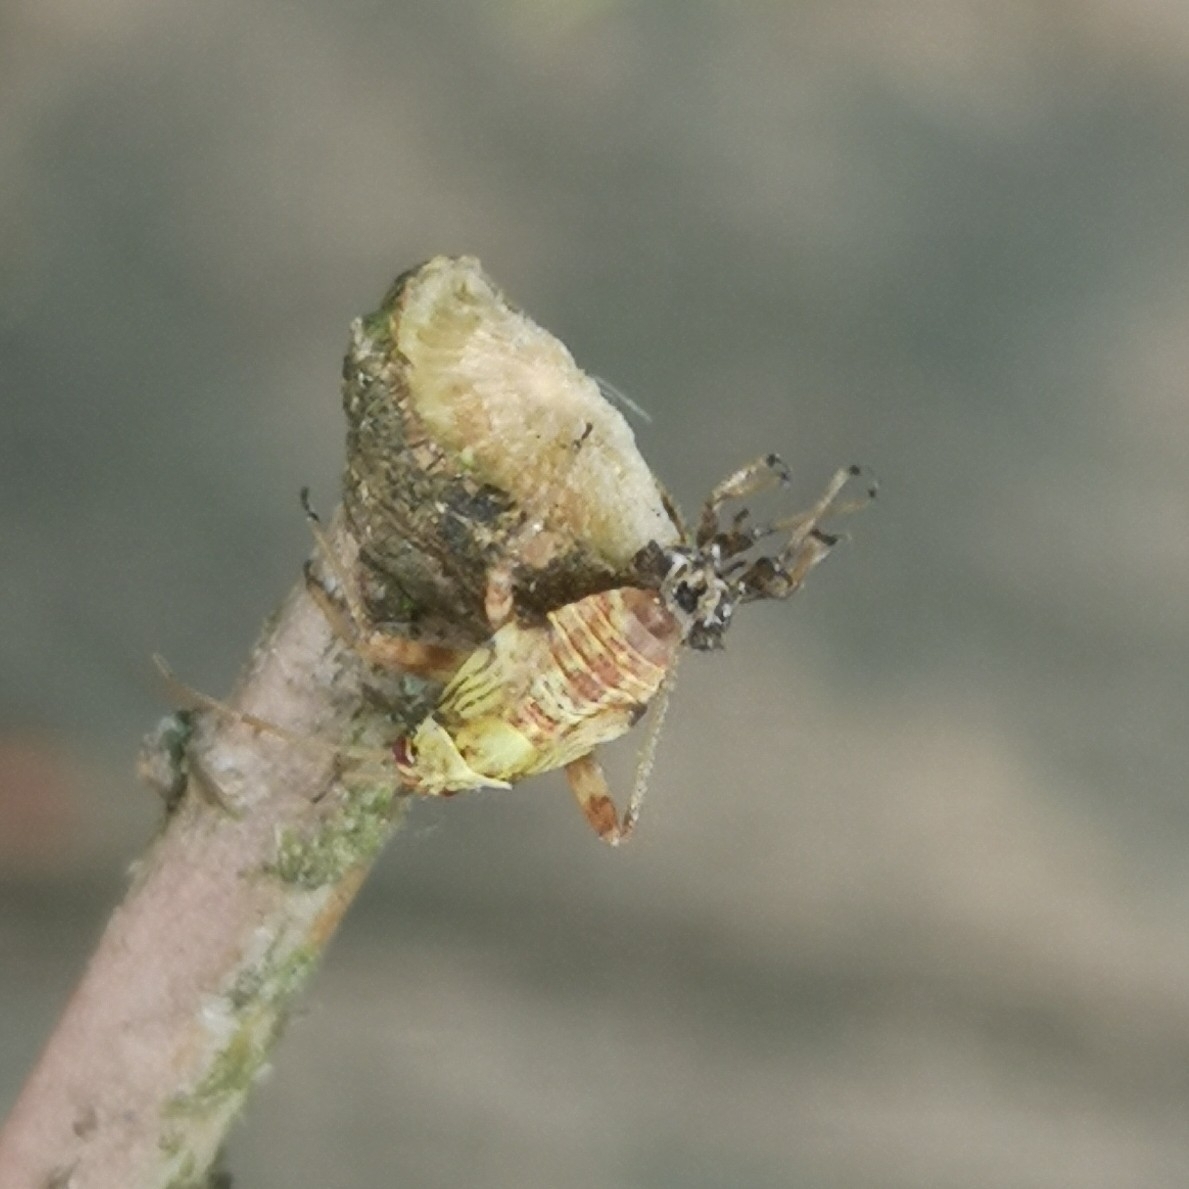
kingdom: Animalia
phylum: Arthropoda
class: Insecta
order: Hemiptera
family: Miridae
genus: Rhabdomiris
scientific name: Rhabdomiris striatellus
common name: Plant bug
